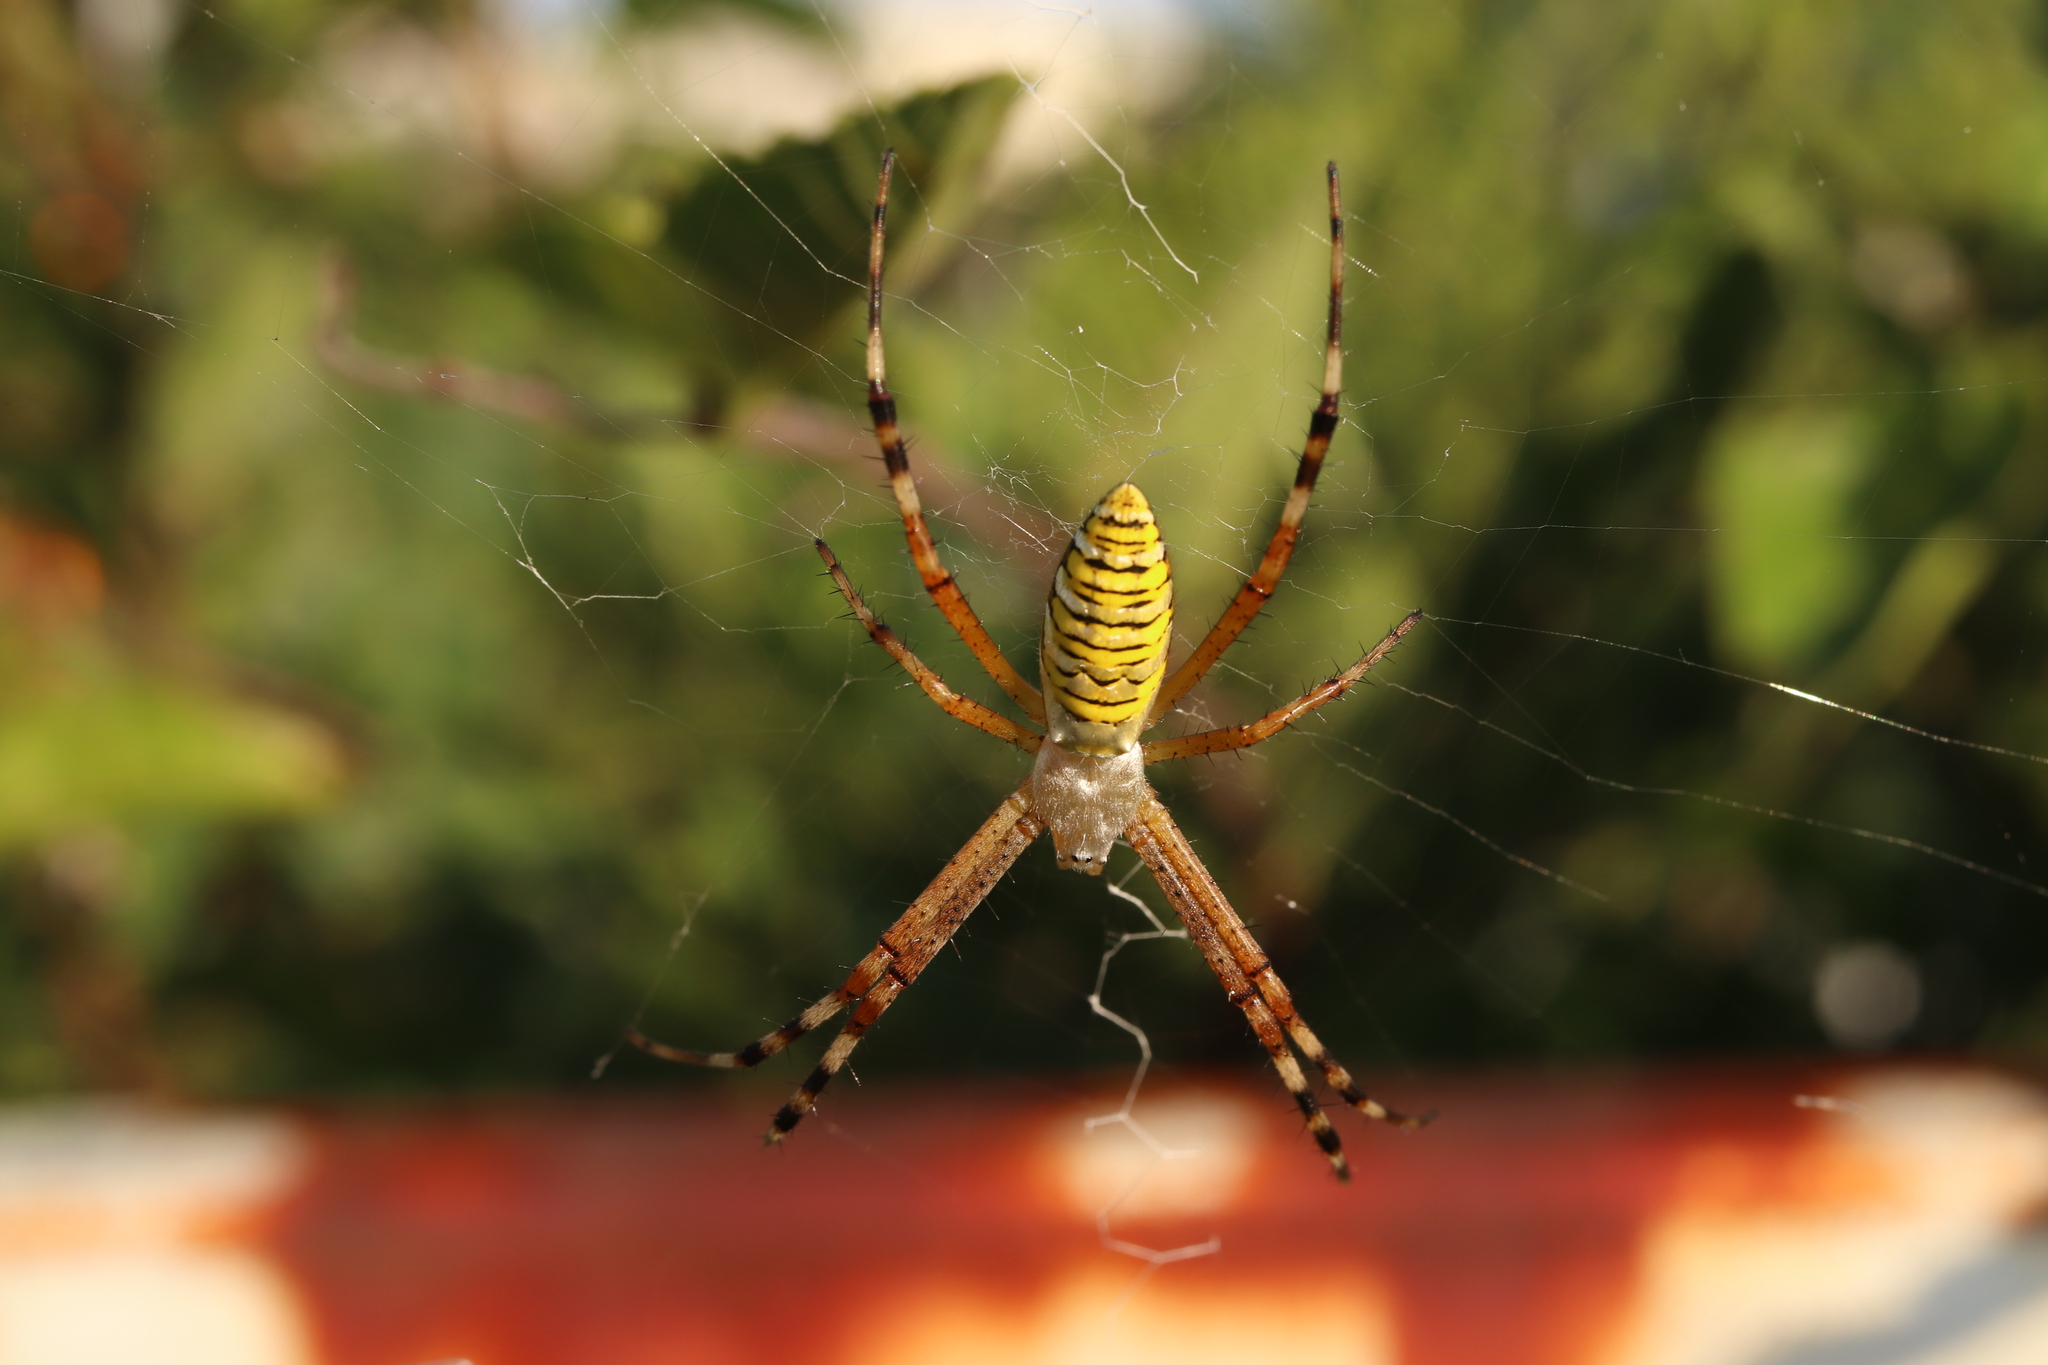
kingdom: Animalia
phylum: Arthropoda
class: Arachnida
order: Araneae
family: Araneidae
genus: Argiope
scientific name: Argiope bruennichi
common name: Wasp spider
